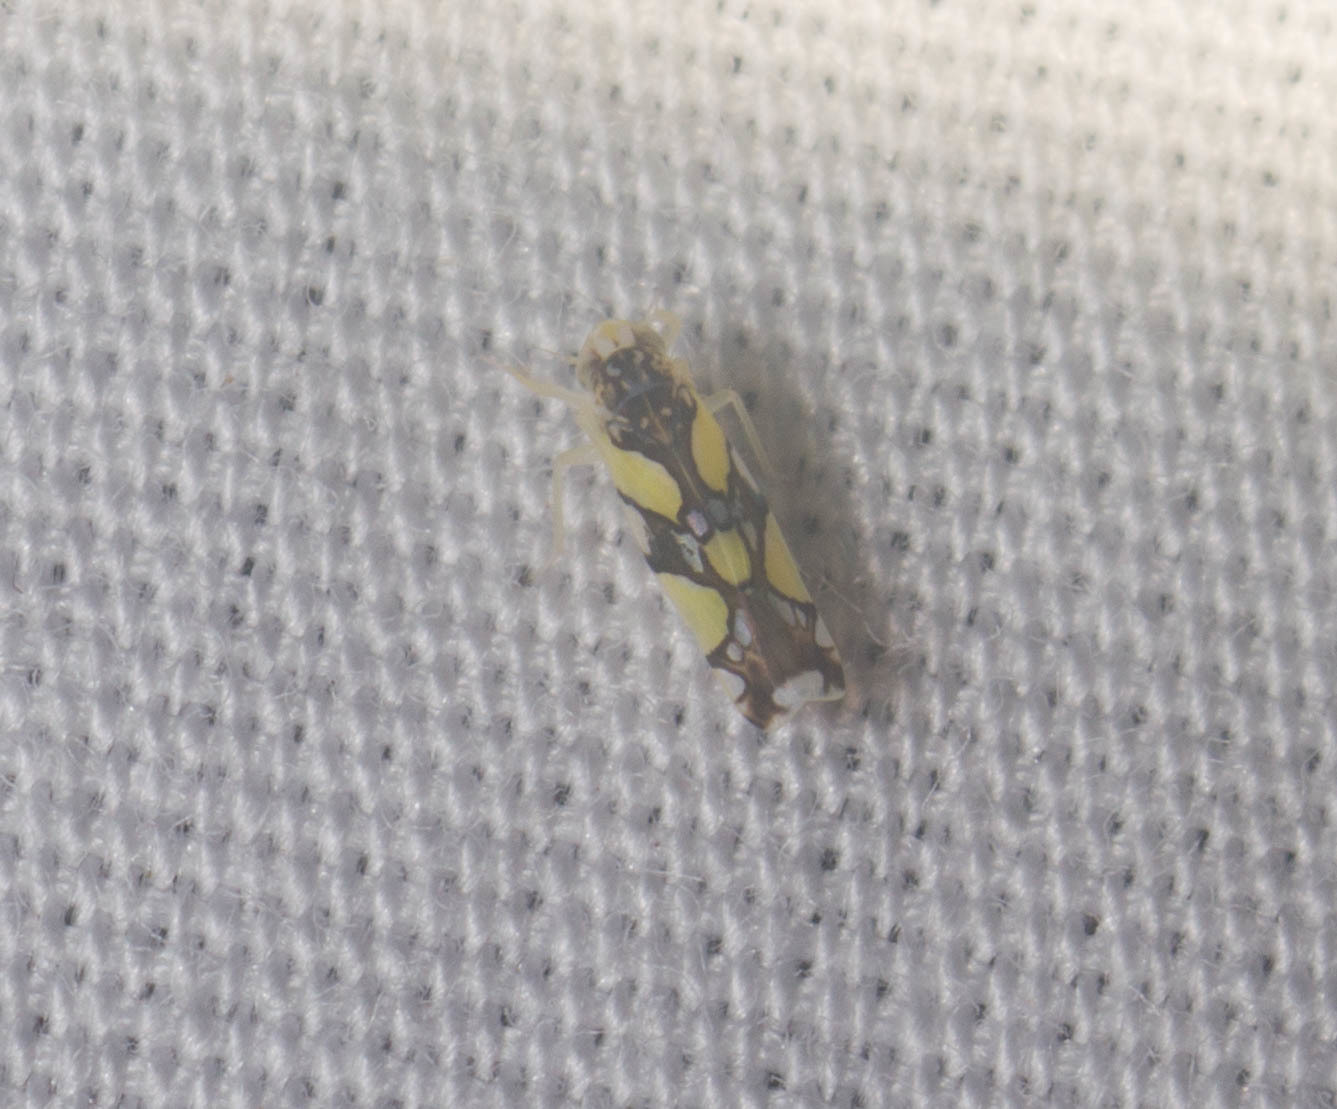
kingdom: Animalia
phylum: Arthropoda
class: Insecta
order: Hemiptera
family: Cicadellidae
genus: Protalebrella
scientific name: Protalebrella brasiliensis
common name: Brasilian leafhopper
